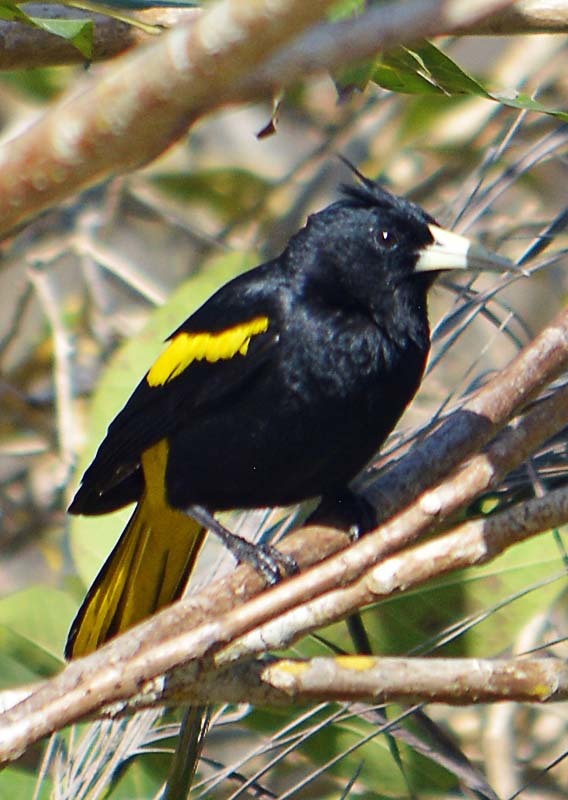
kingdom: Animalia
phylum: Chordata
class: Aves
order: Passeriformes
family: Icteridae
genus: Cacicus
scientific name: Cacicus melanicterus
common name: Yellow-winged cacique
